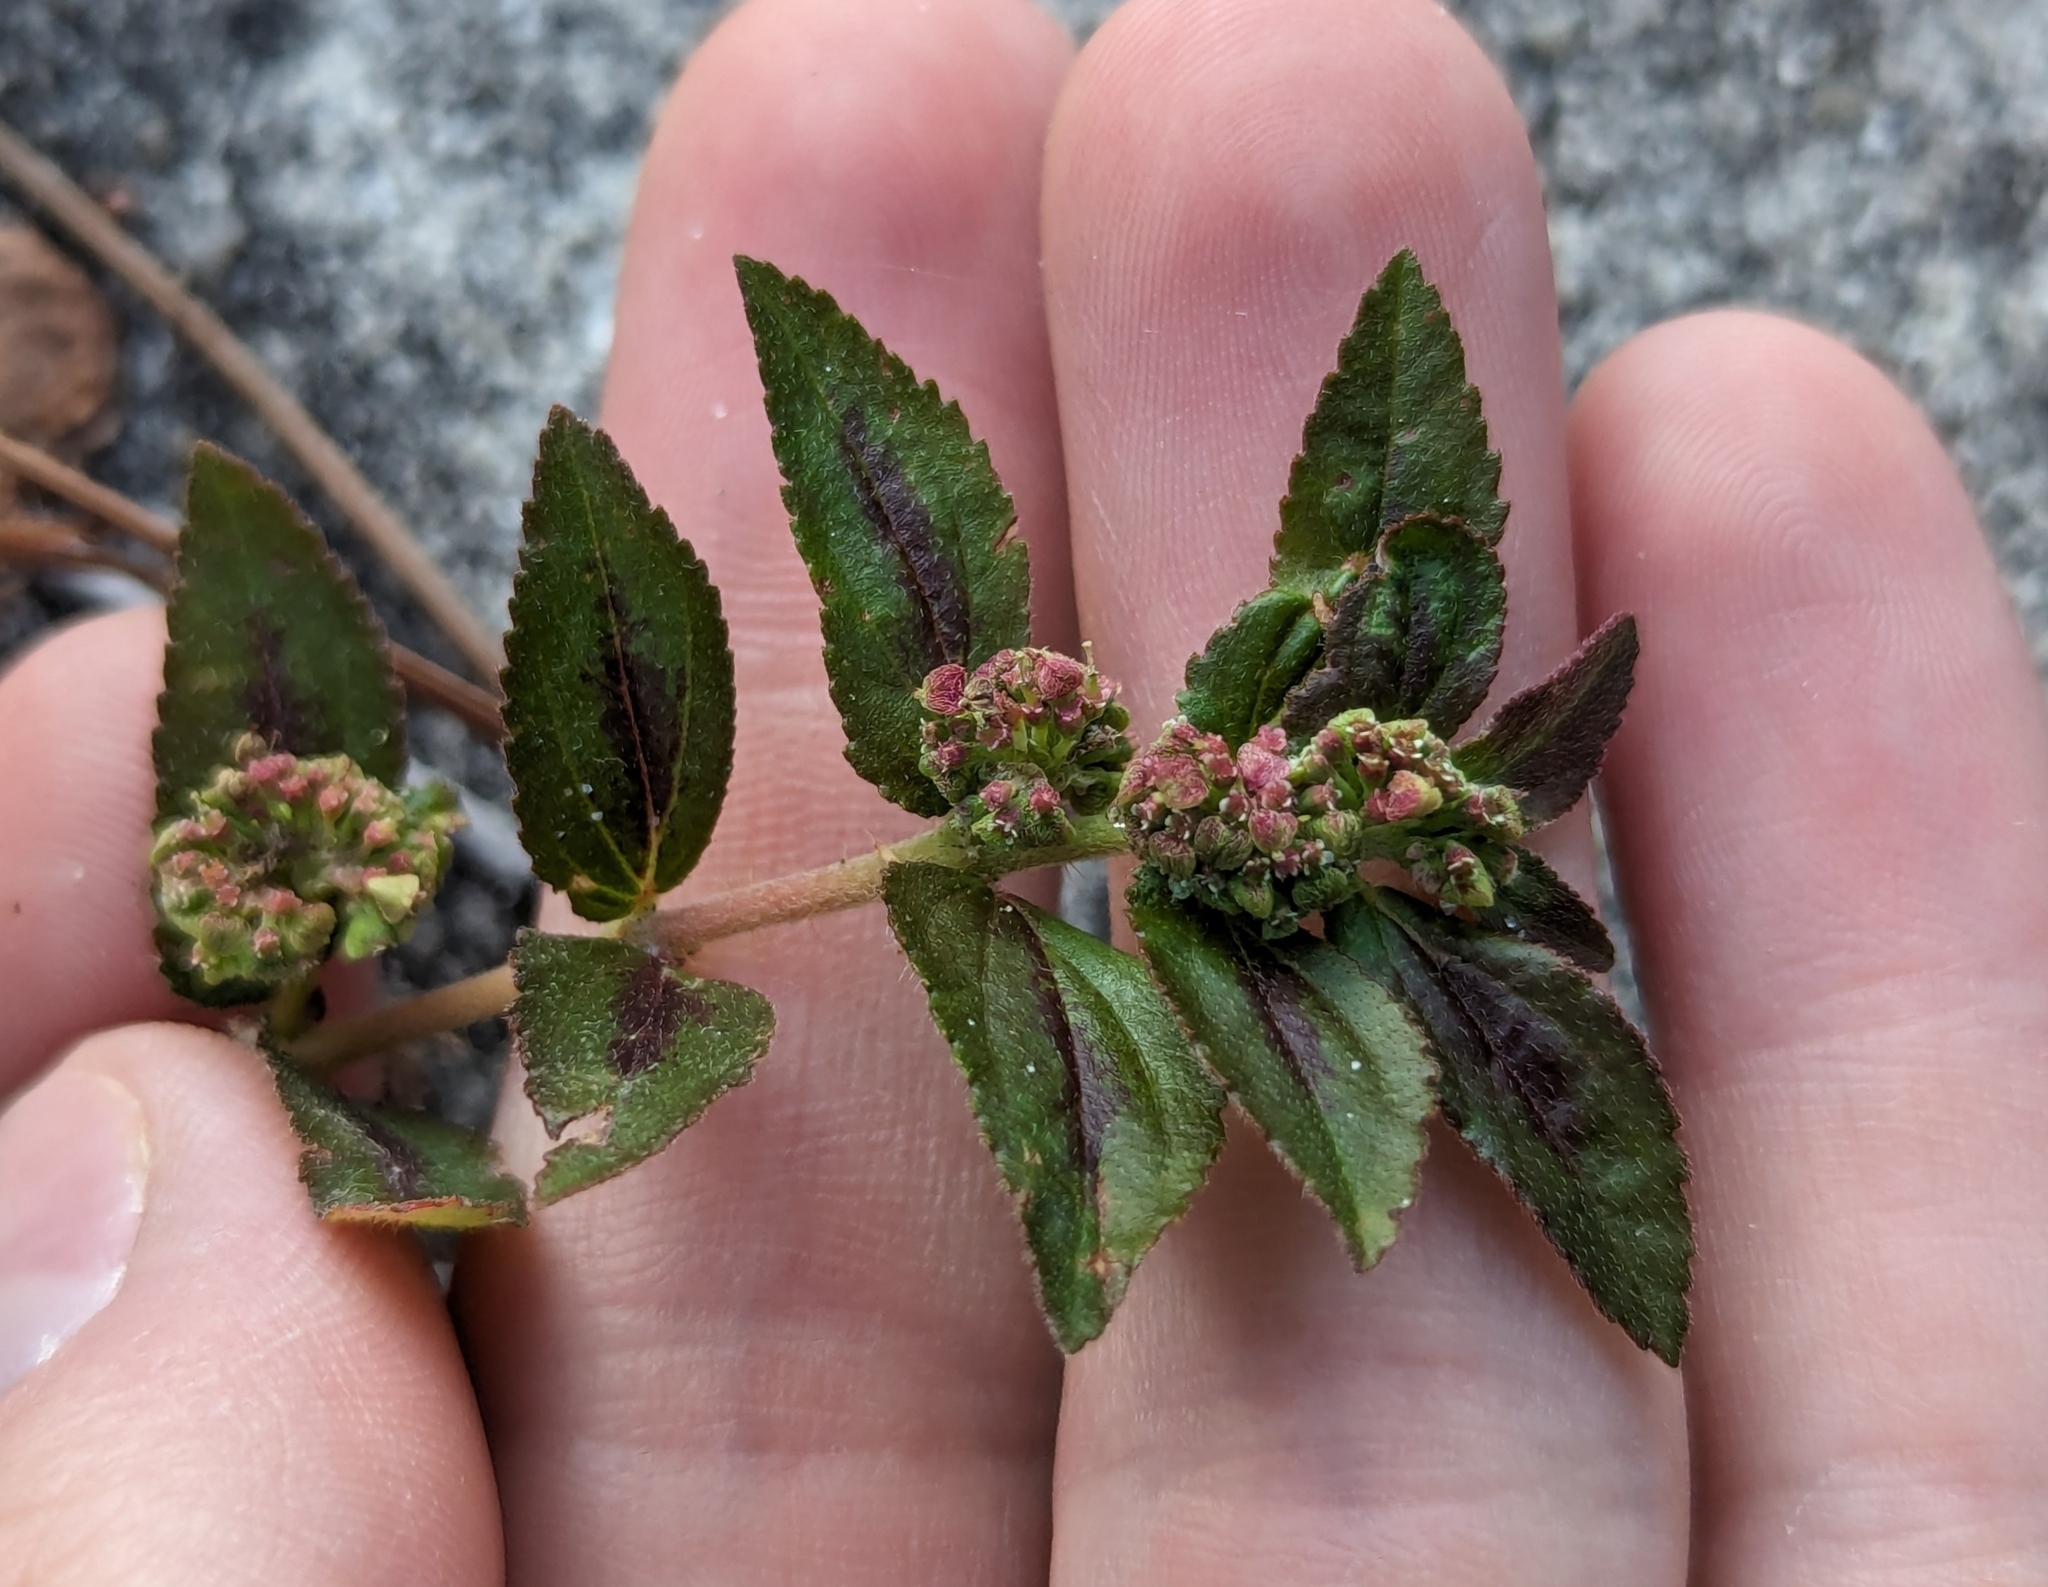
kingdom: Plantae
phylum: Tracheophyta
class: Magnoliopsida
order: Malpighiales
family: Euphorbiaceae
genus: Euphorbia
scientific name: Euphorbia hirta
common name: Pillpod sandmat
